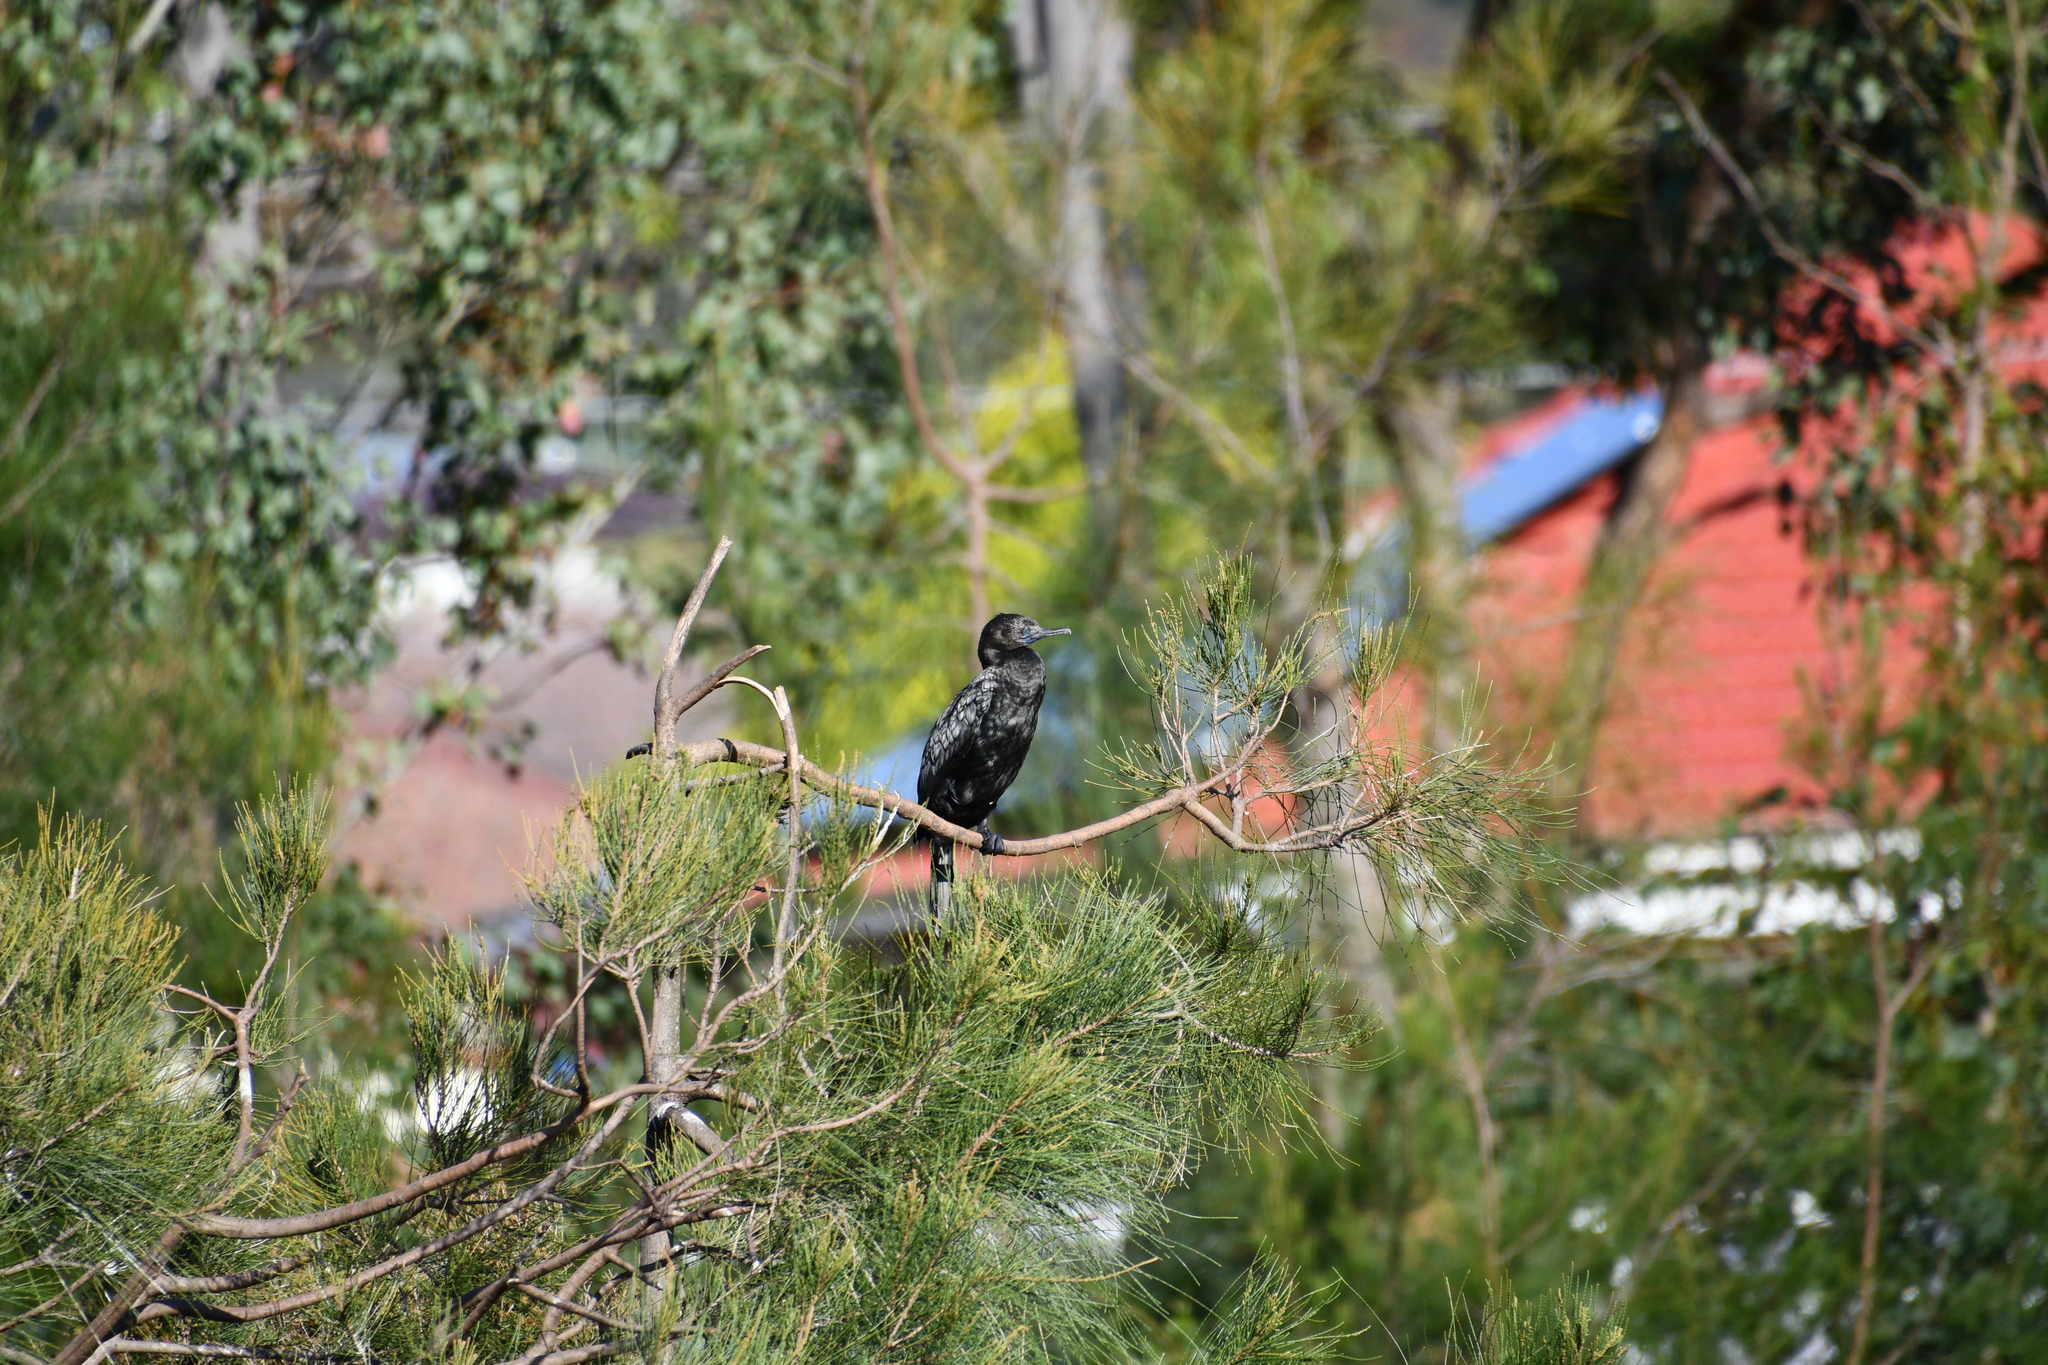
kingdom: Animalia
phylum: Chordata
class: Aves
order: Suliformes
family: Phalacrocoracidae
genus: Phalacrocorax
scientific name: Phalacrocorax sulcirostris
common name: Little black cormorant
